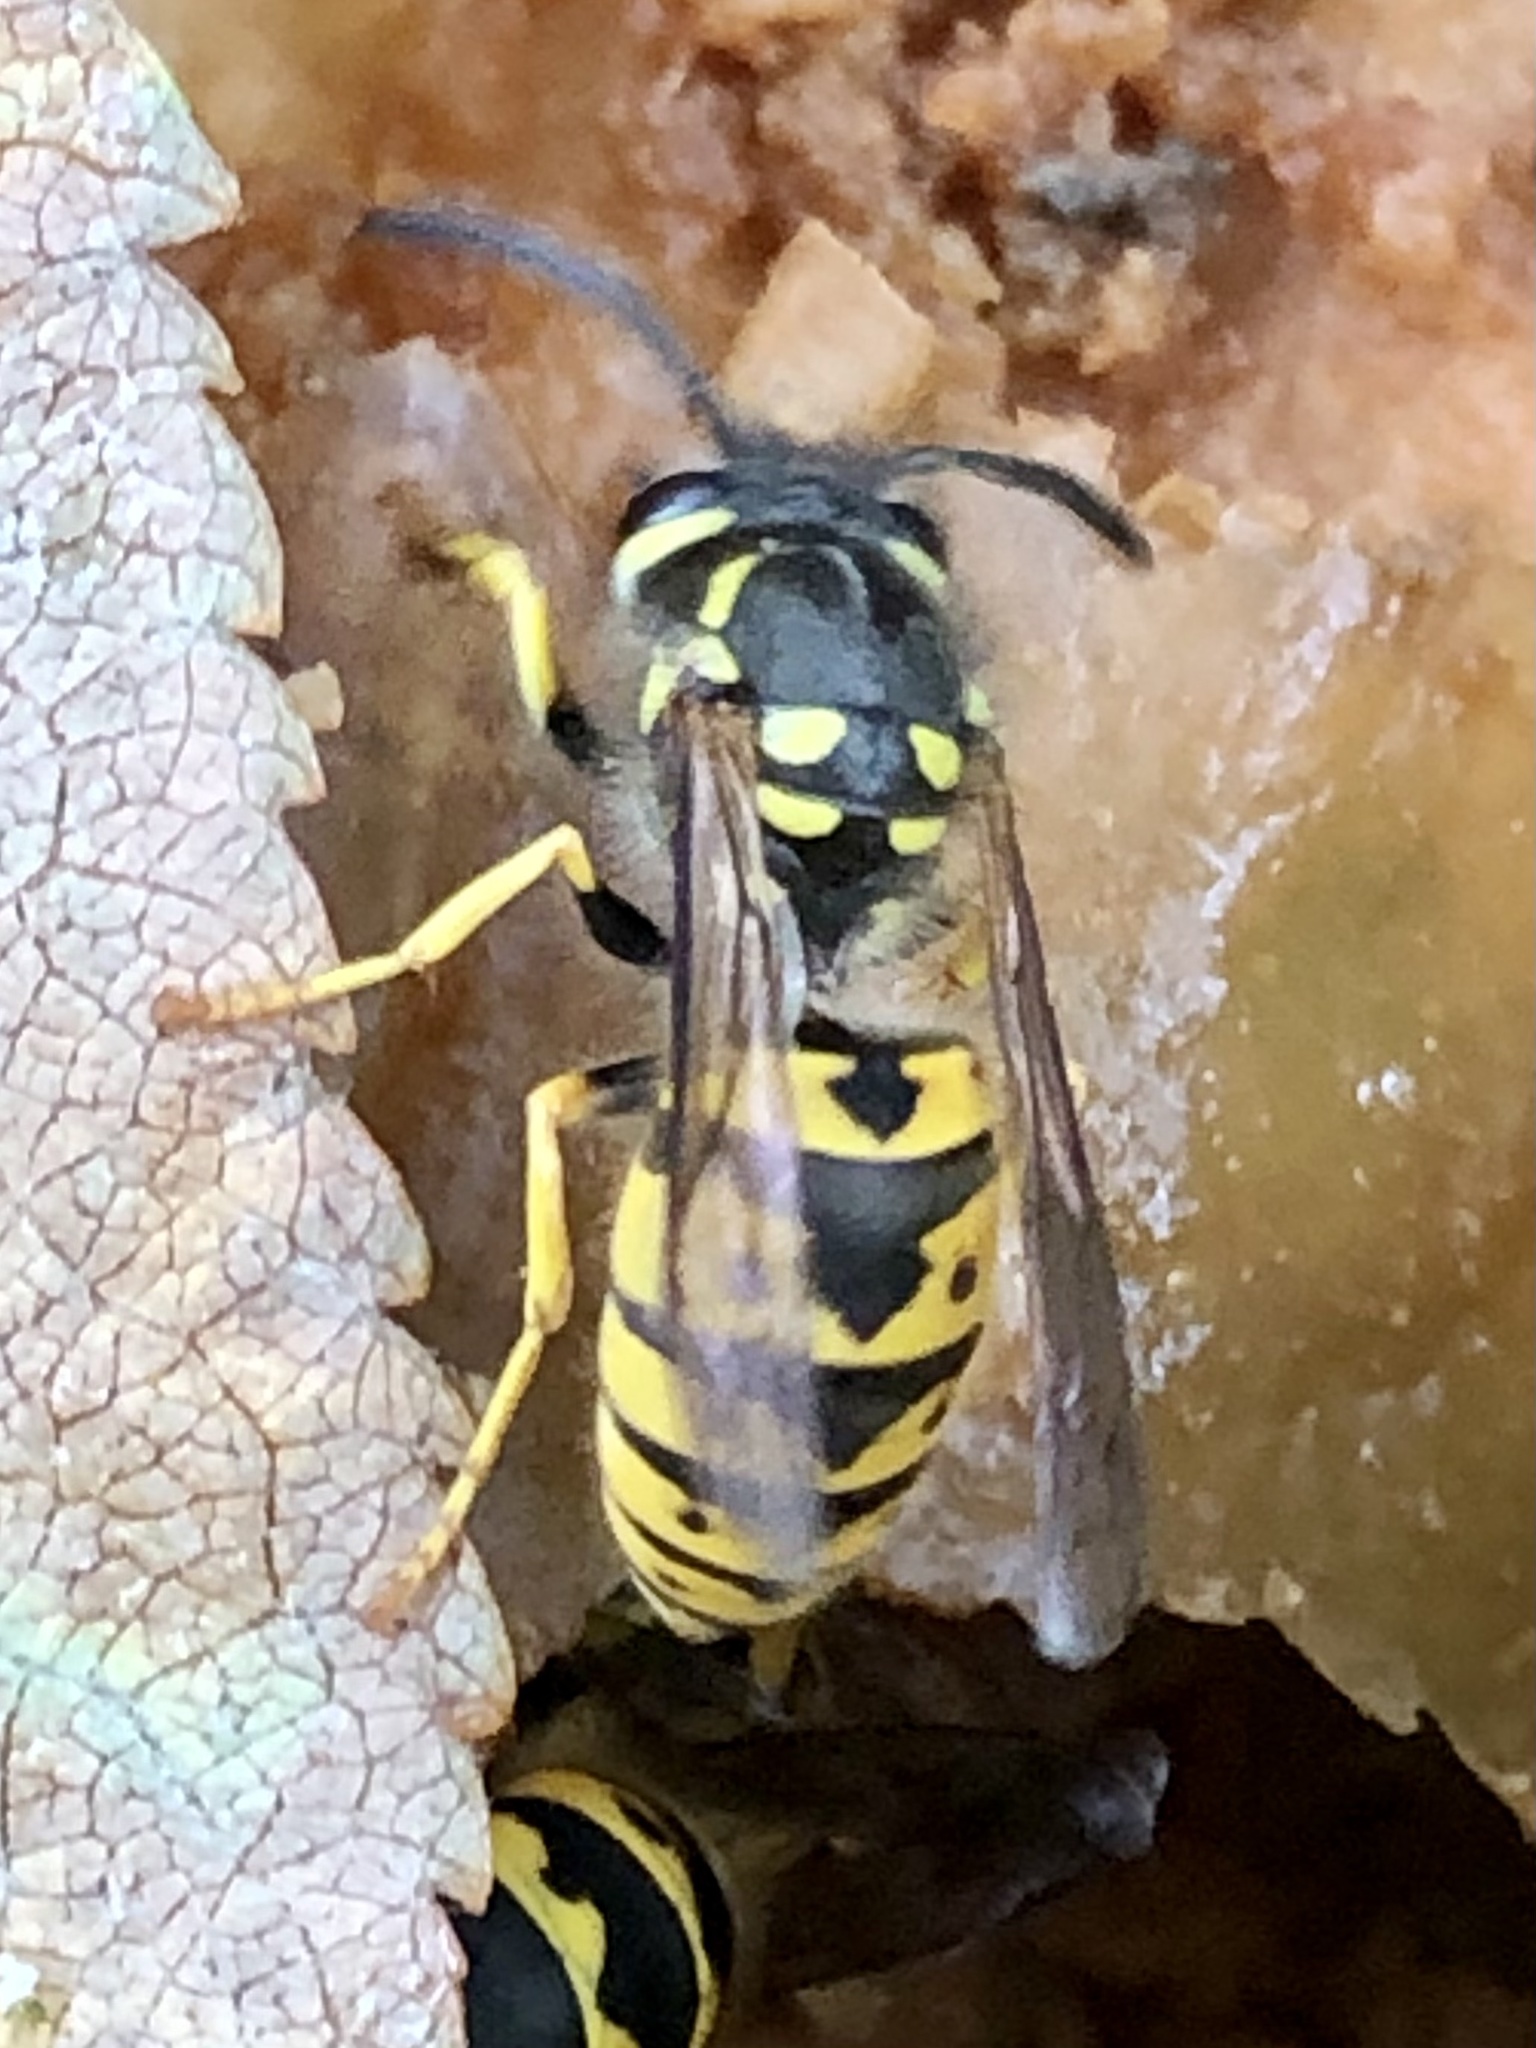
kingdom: Animalia
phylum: Arthropoda
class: Insecta
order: Hymenoptera
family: Vespidae
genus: Vespula
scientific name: Vespula germanica
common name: German wasp
